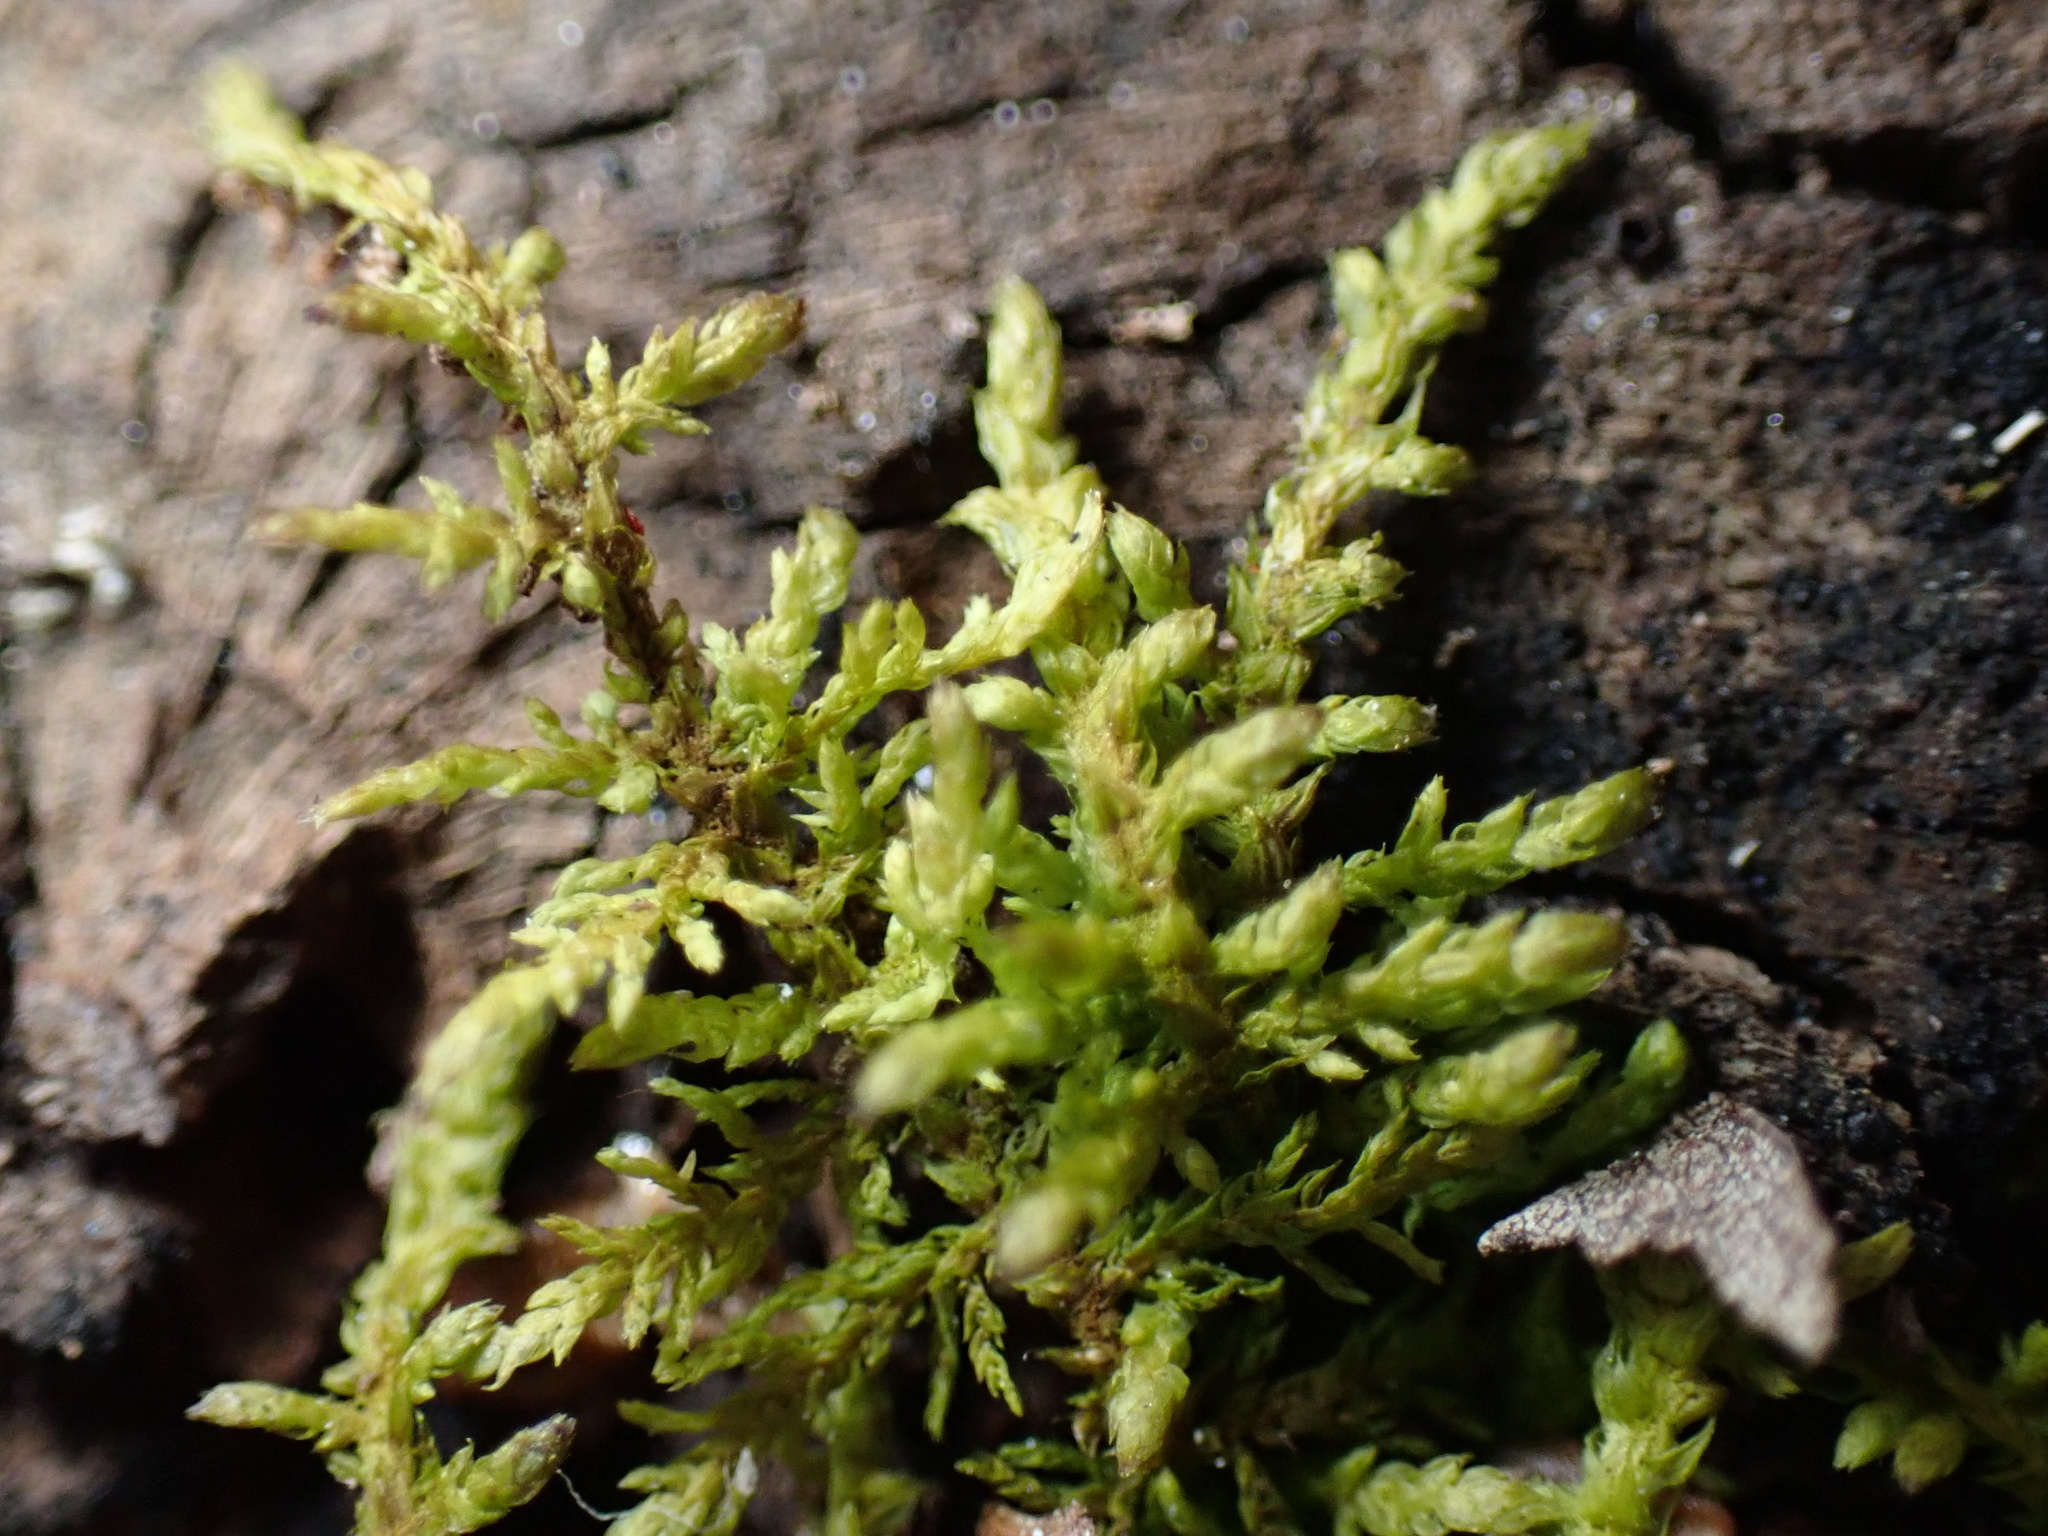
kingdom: Plantae
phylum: Bryophyta
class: Bryopsida
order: Hypnales
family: Thuidiaceae
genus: Thuidium
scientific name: Thuidium delicatulum
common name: Delicate fern moss
